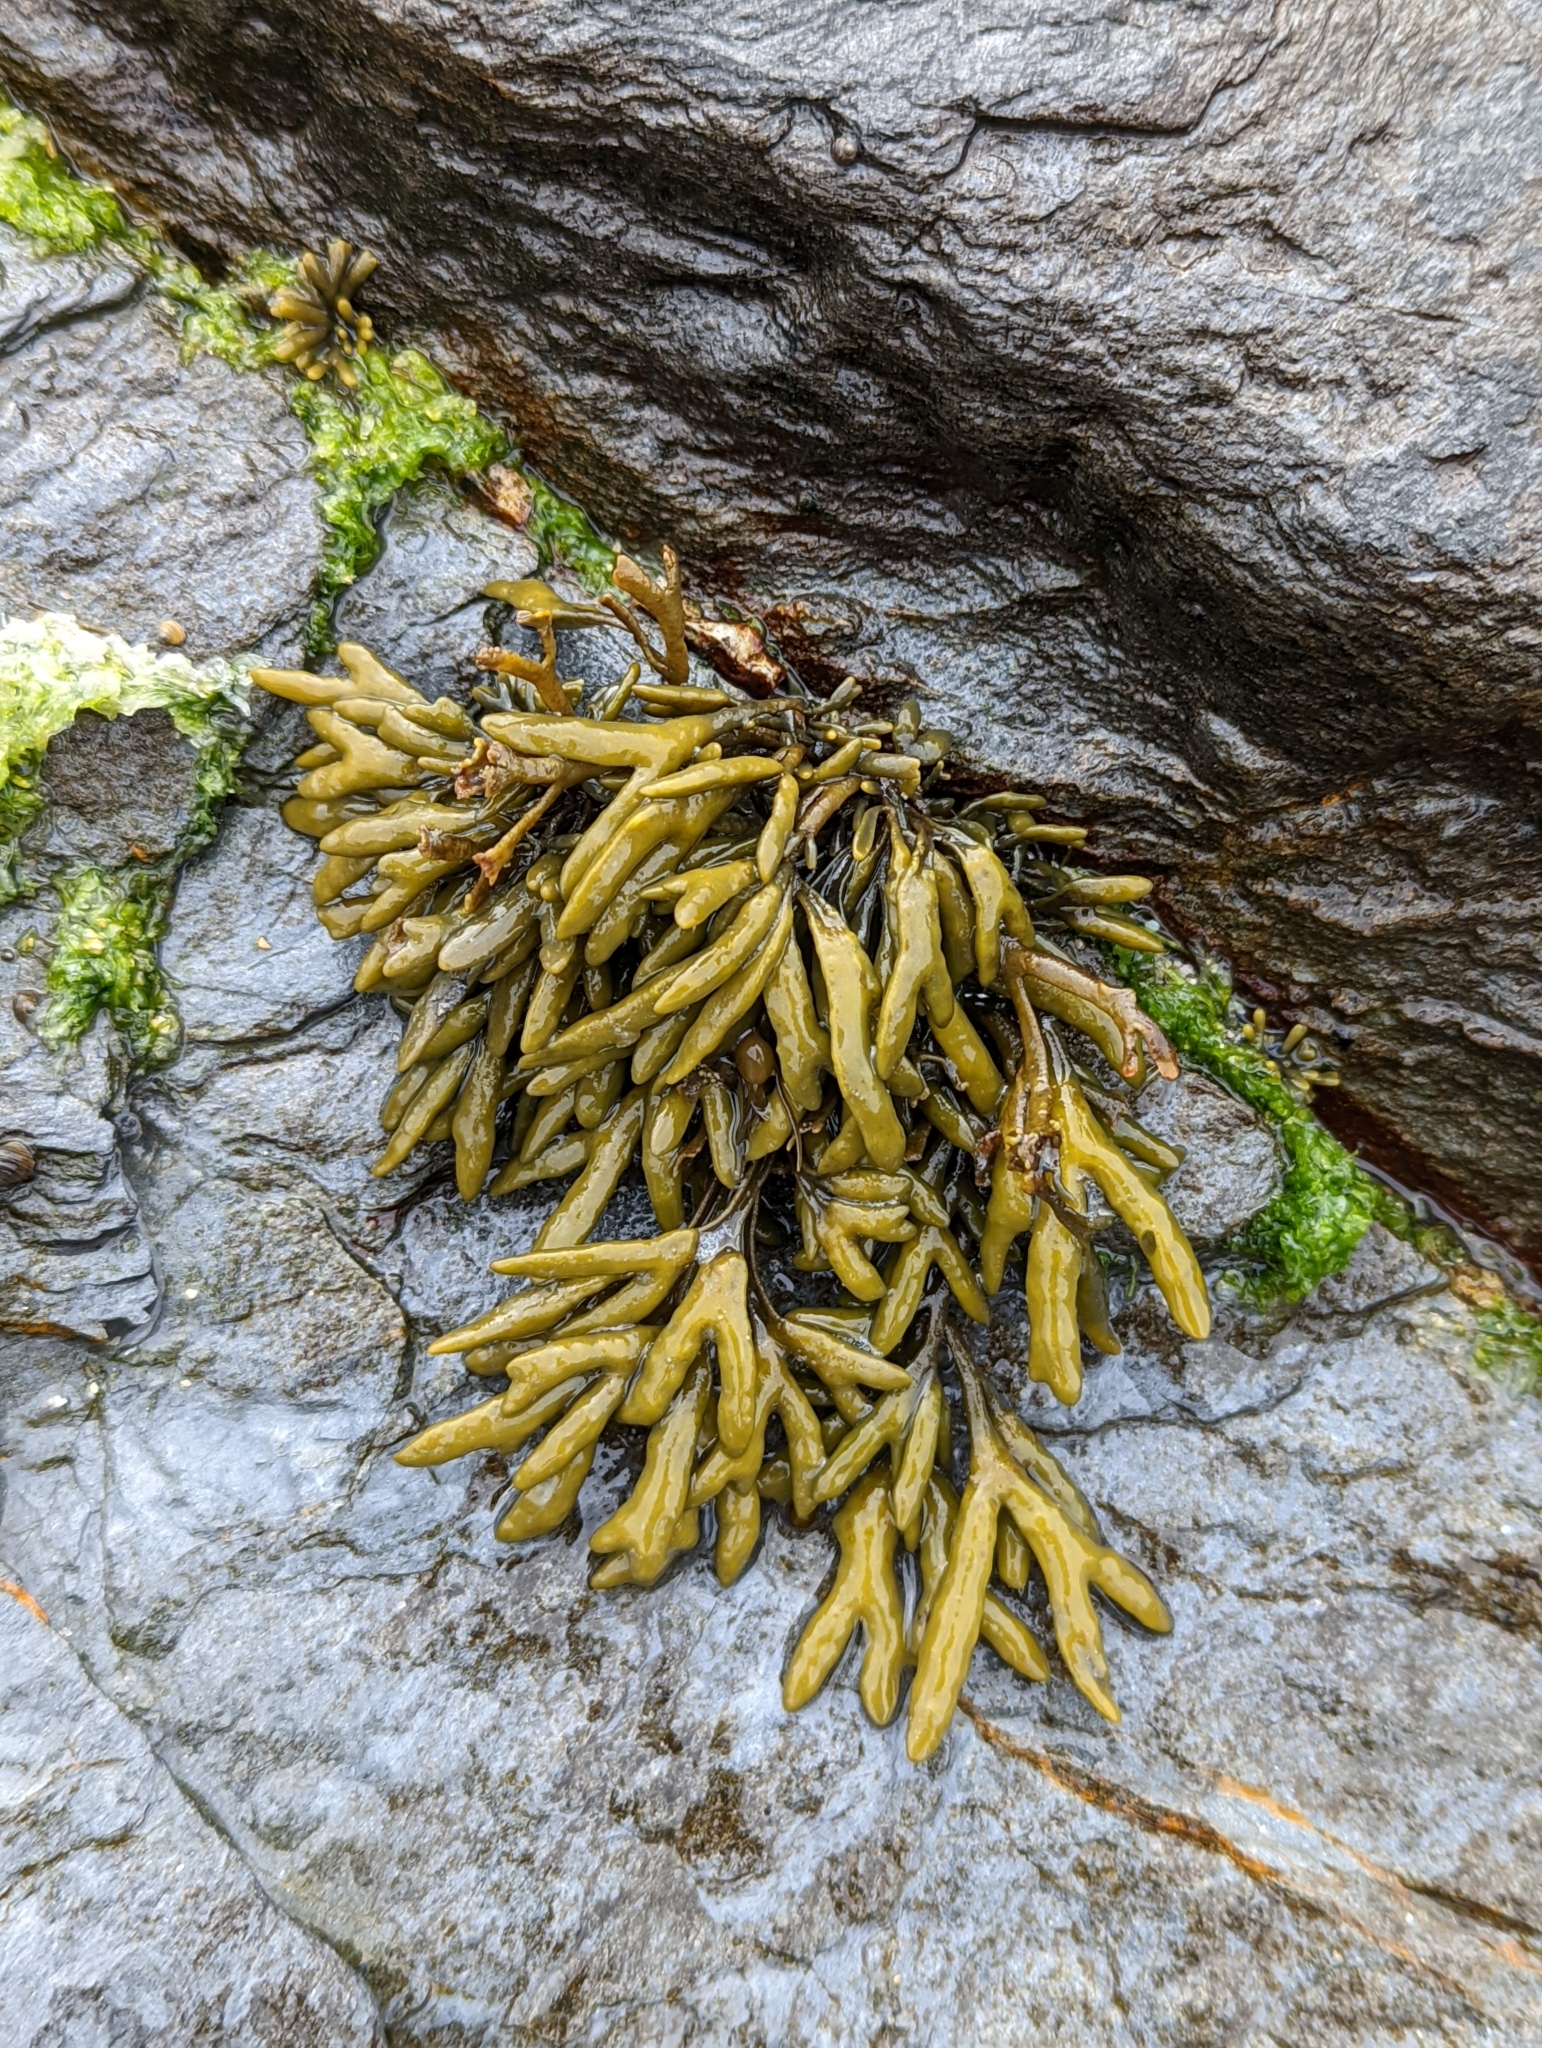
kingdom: Chromista
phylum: Ochrophyta
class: Phaeophyceae
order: Fucales
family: Fucaceae
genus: Pelvetia
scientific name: Pelvetia canaliculata
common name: Channelled wrack
